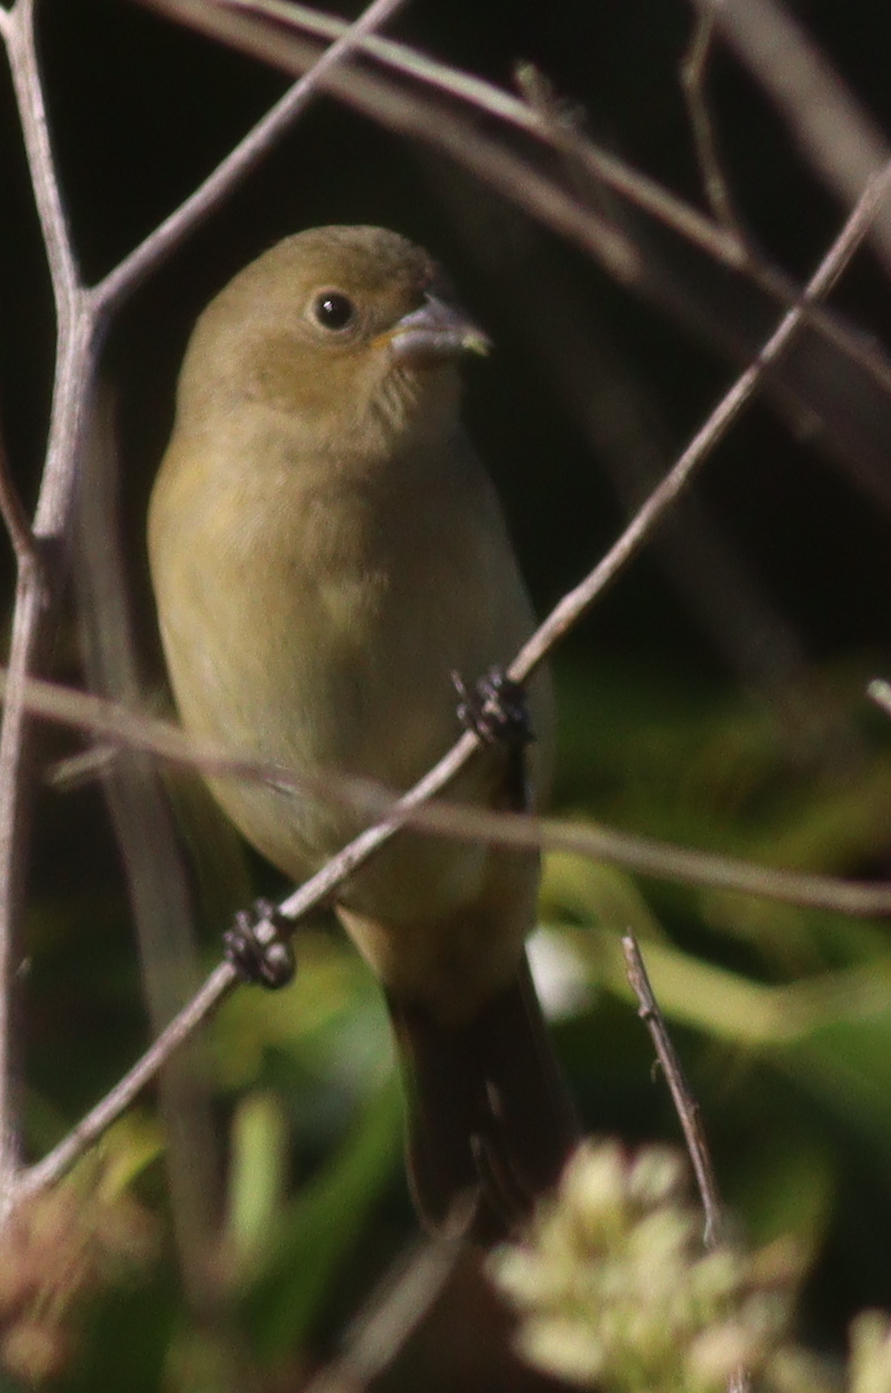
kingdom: Animalia
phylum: Chordata
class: Aves
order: Passeriformes
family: Thraupidae
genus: Sporophila
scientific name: Sporophila caerulescens
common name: Double-collared seedeater
